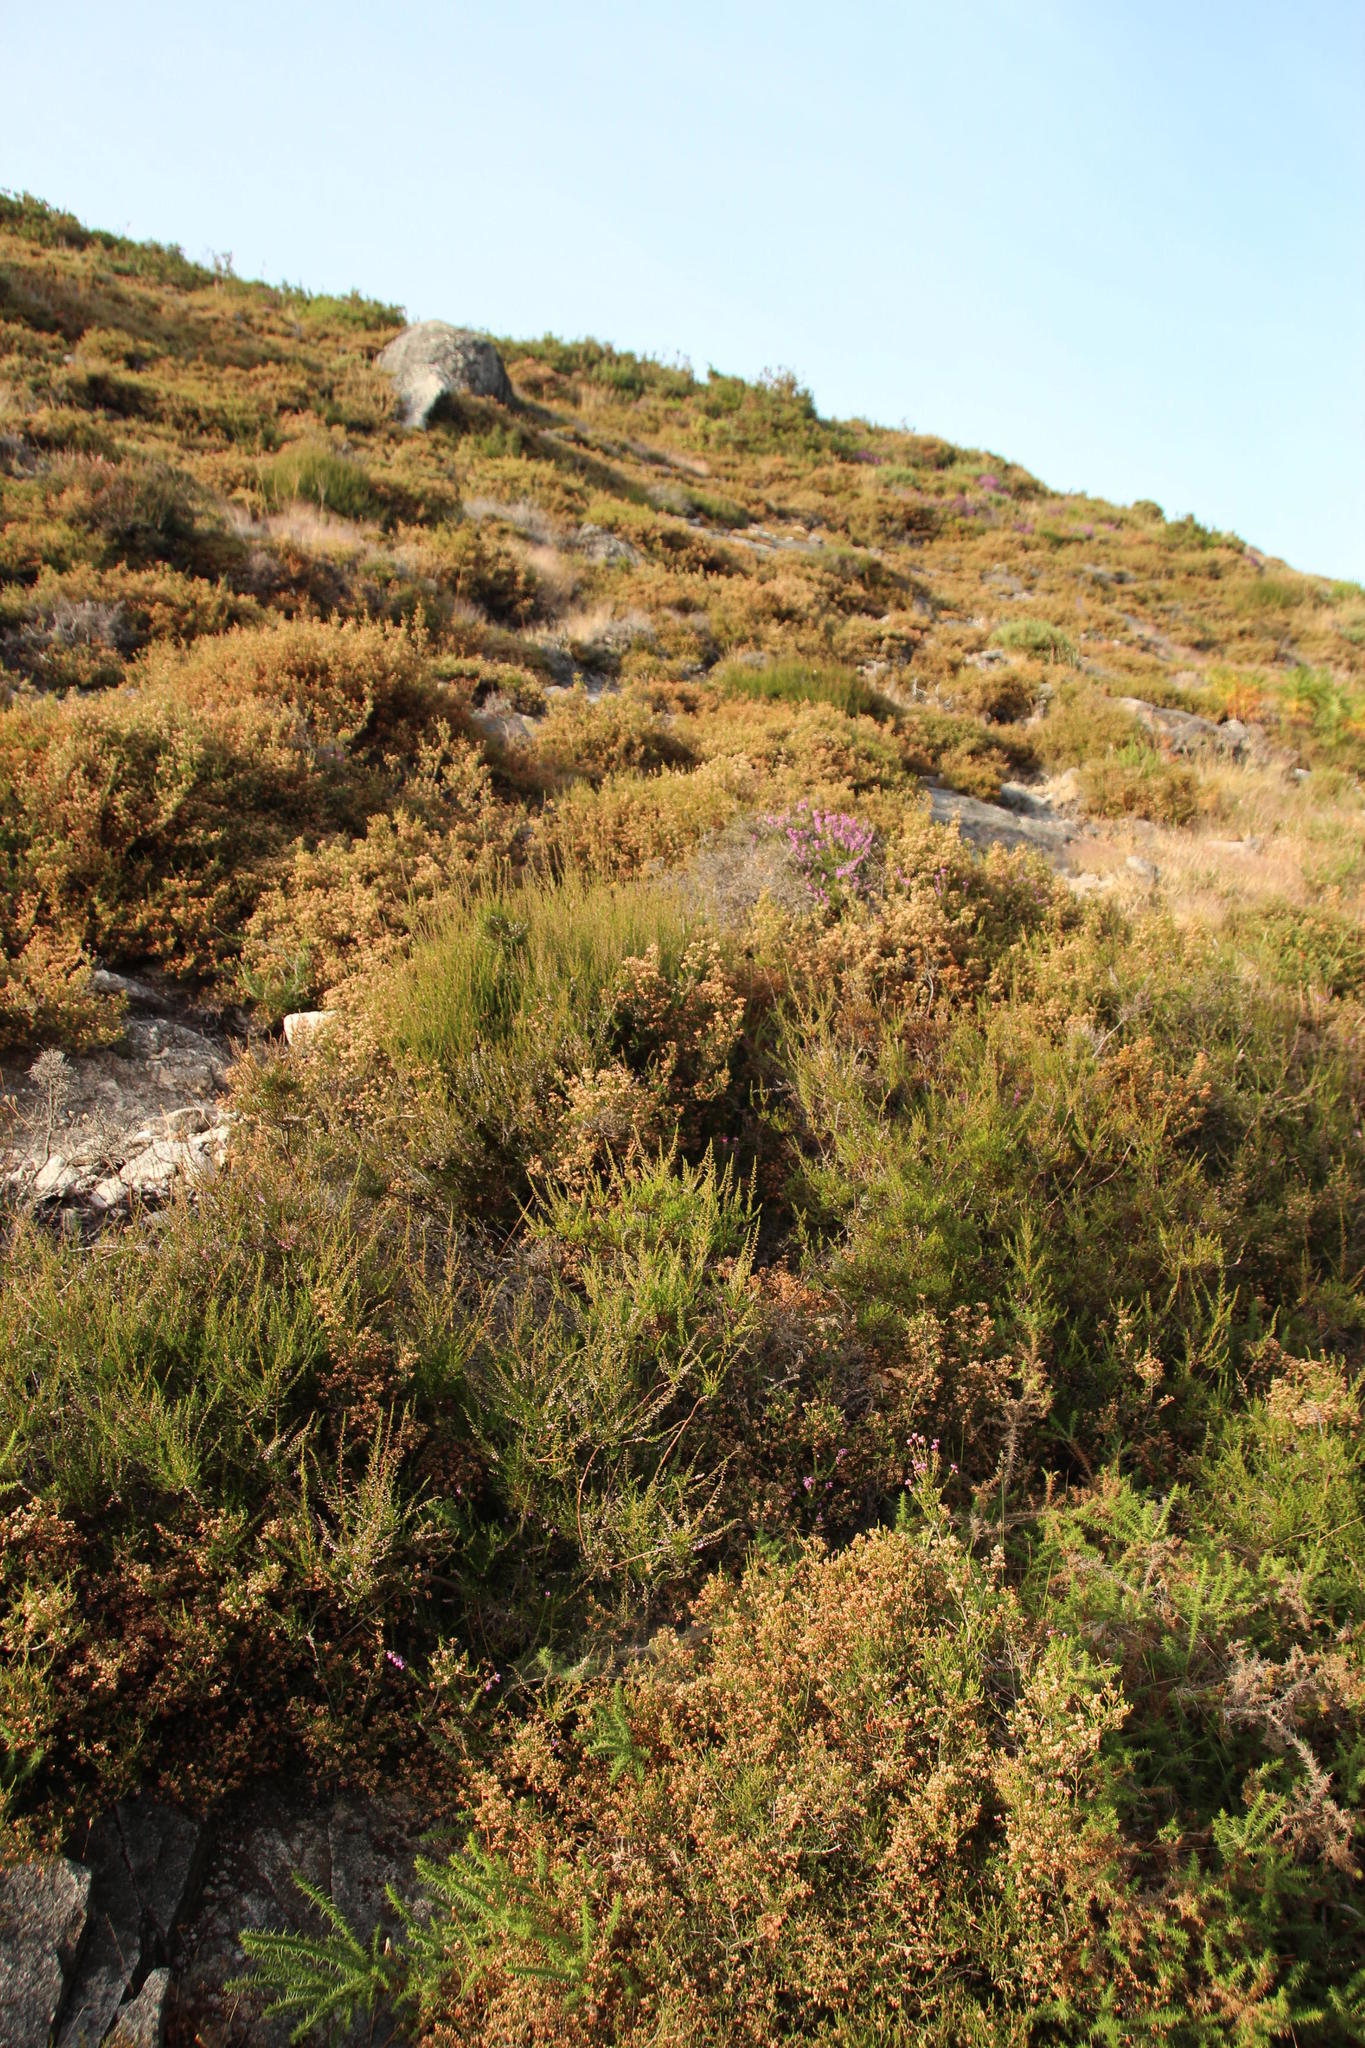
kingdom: Plantae
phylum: Tracheophyta
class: Magnoliopsida
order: Ericales
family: Ericaceae
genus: Erica
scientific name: Erica umbellata
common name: Dwarf spanish heath
